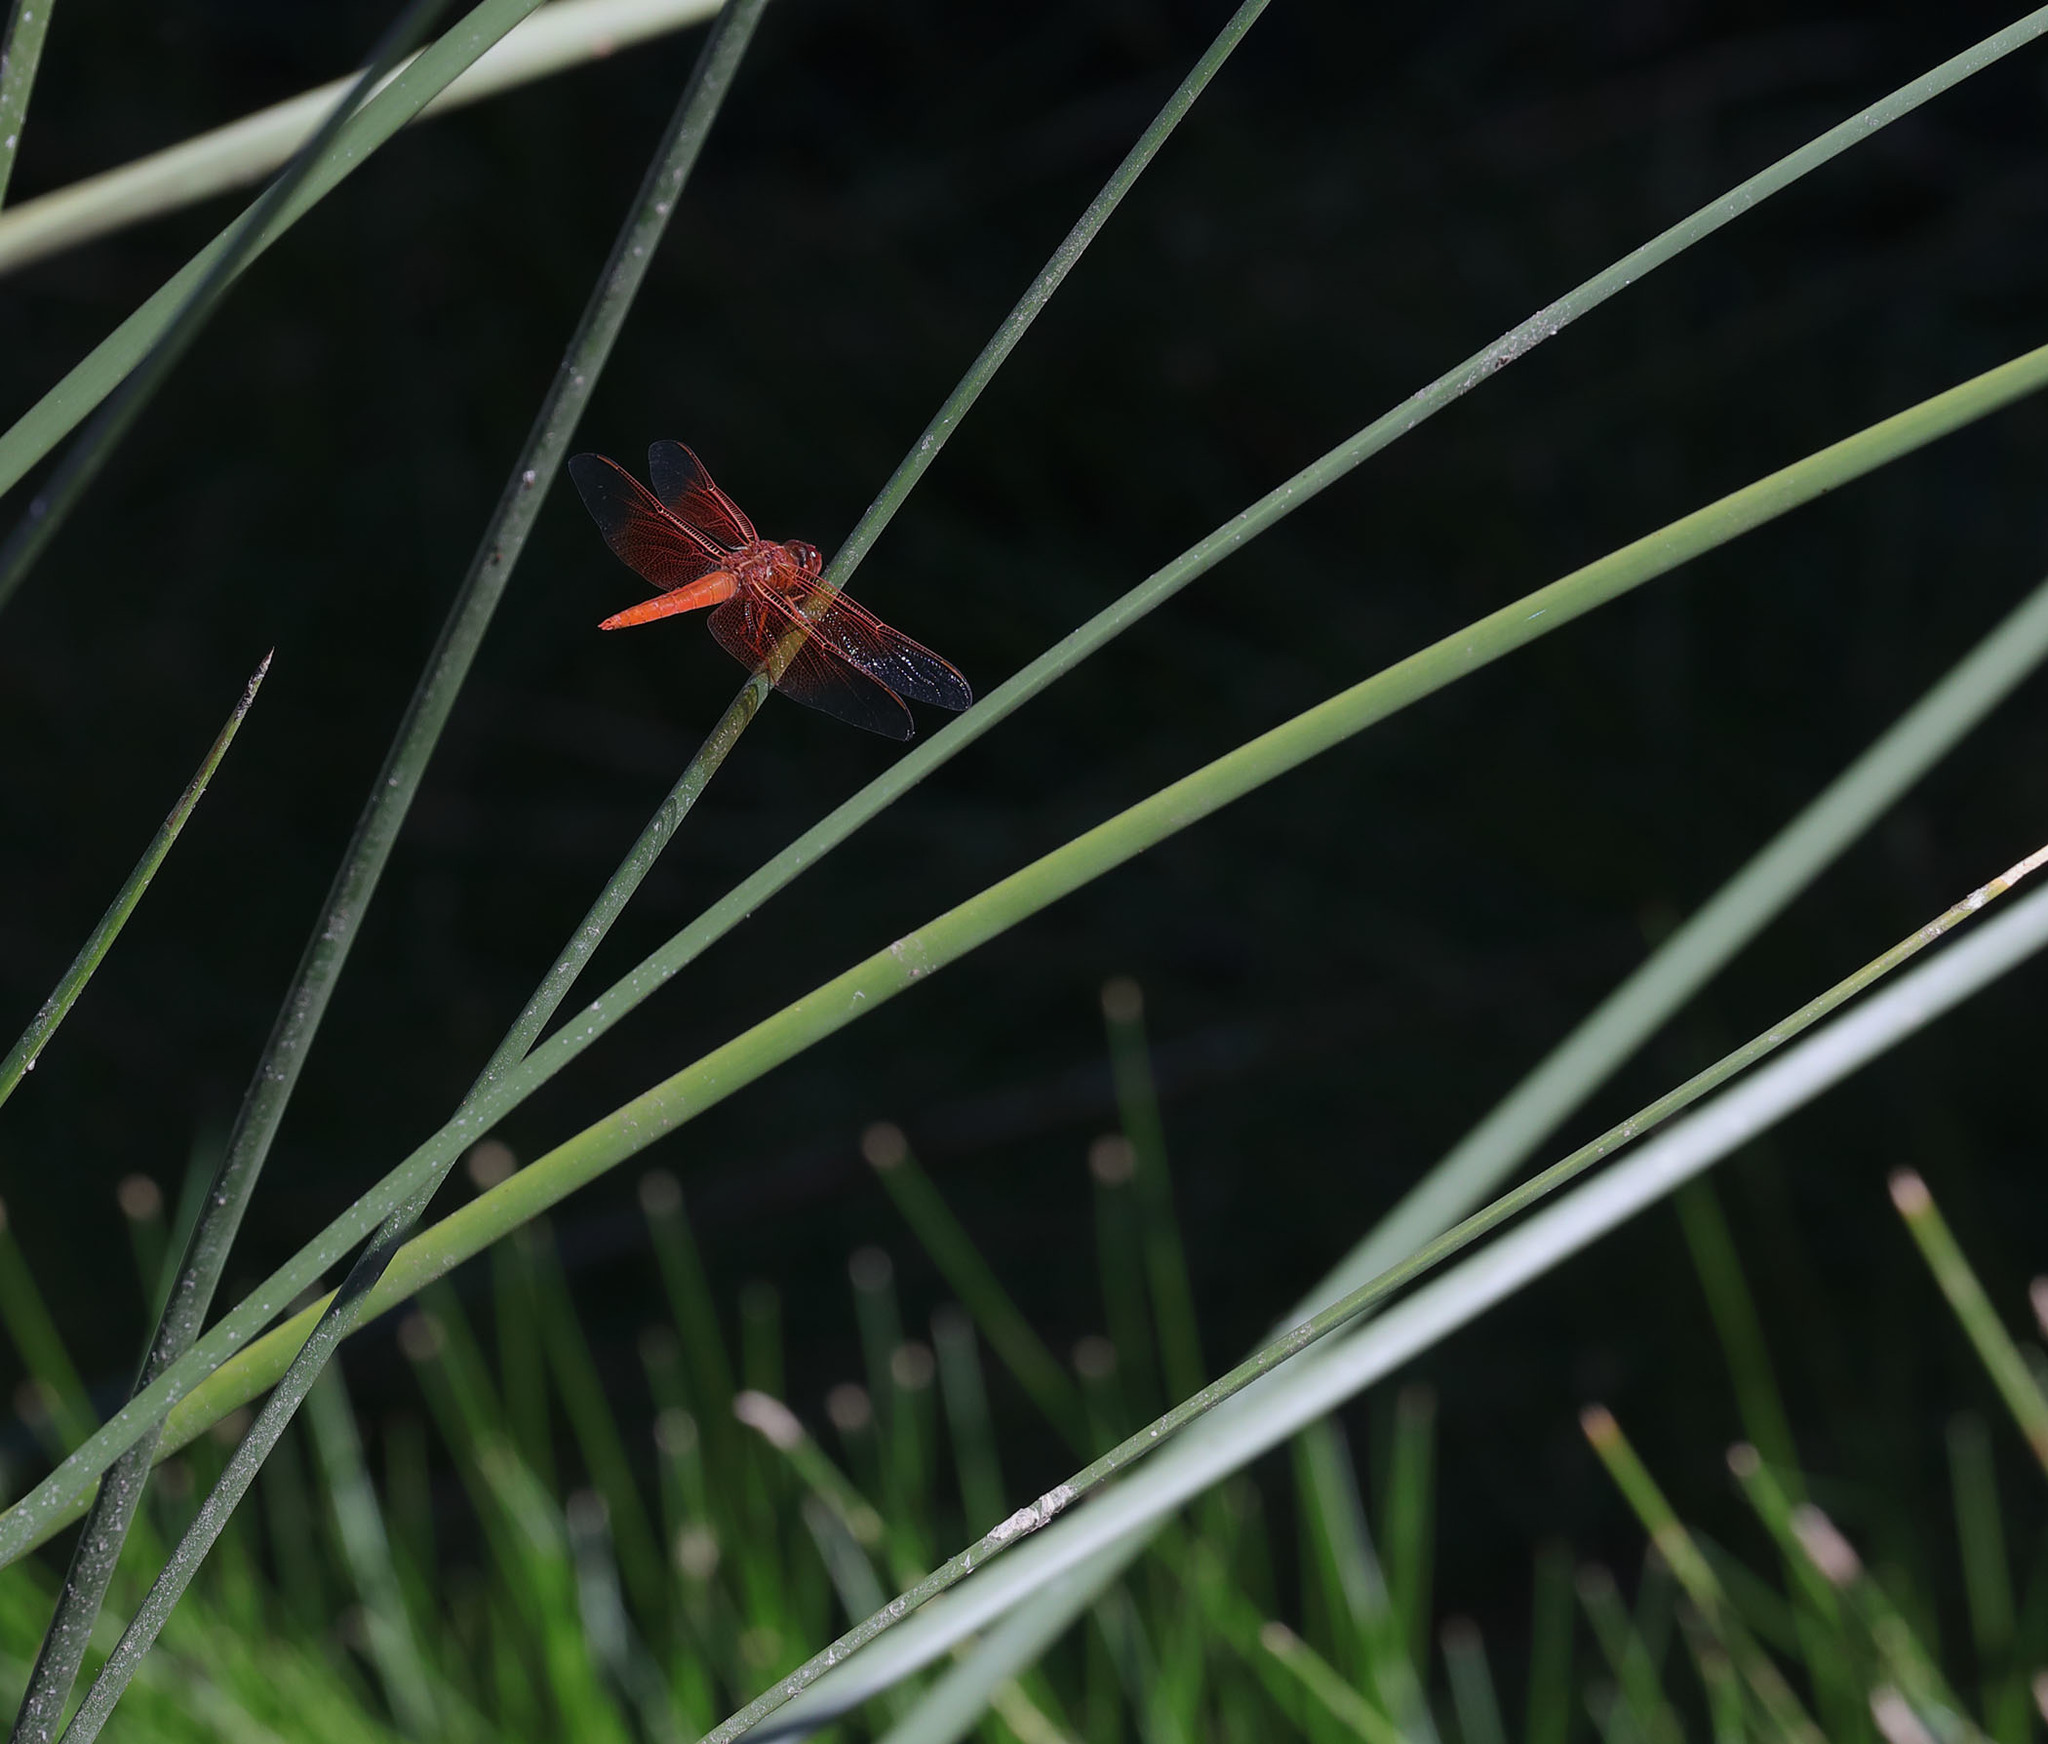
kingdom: Animalia
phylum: Arthropoda
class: Insecta
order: Odonata
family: Libellulidae
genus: Libellula
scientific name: Libellula saturata
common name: Flame skimmer
